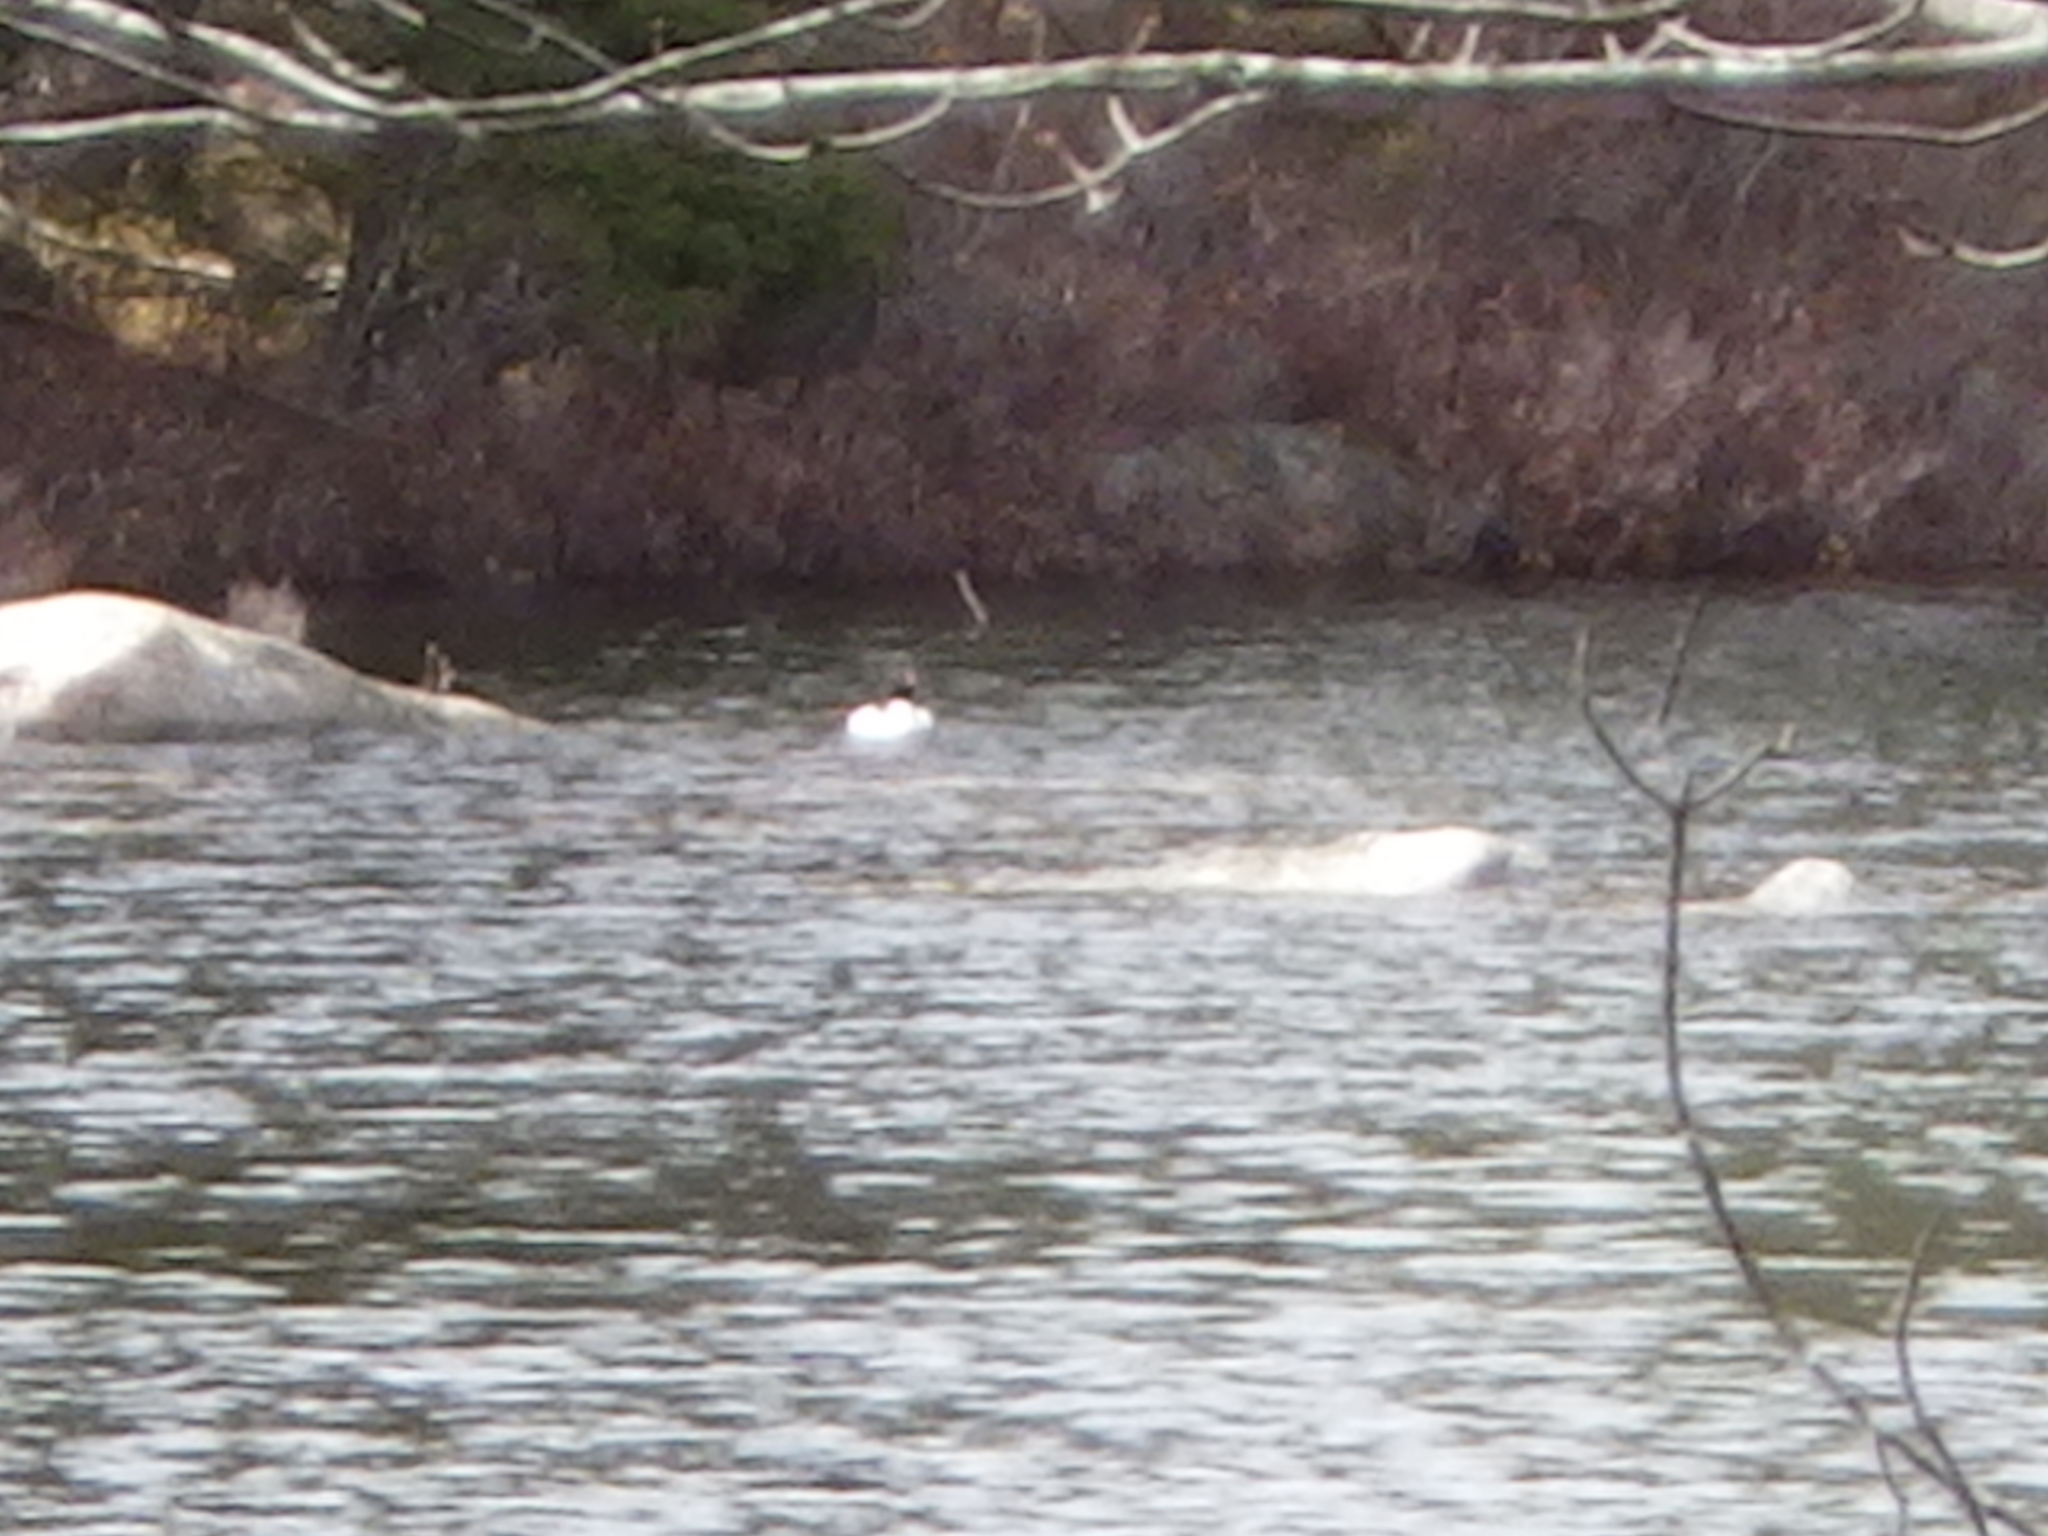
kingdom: Animalia
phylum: Chordata
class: Aves
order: Anseriformes
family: Anatidae
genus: Mergus
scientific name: Mergus merganser
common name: Common merganser
